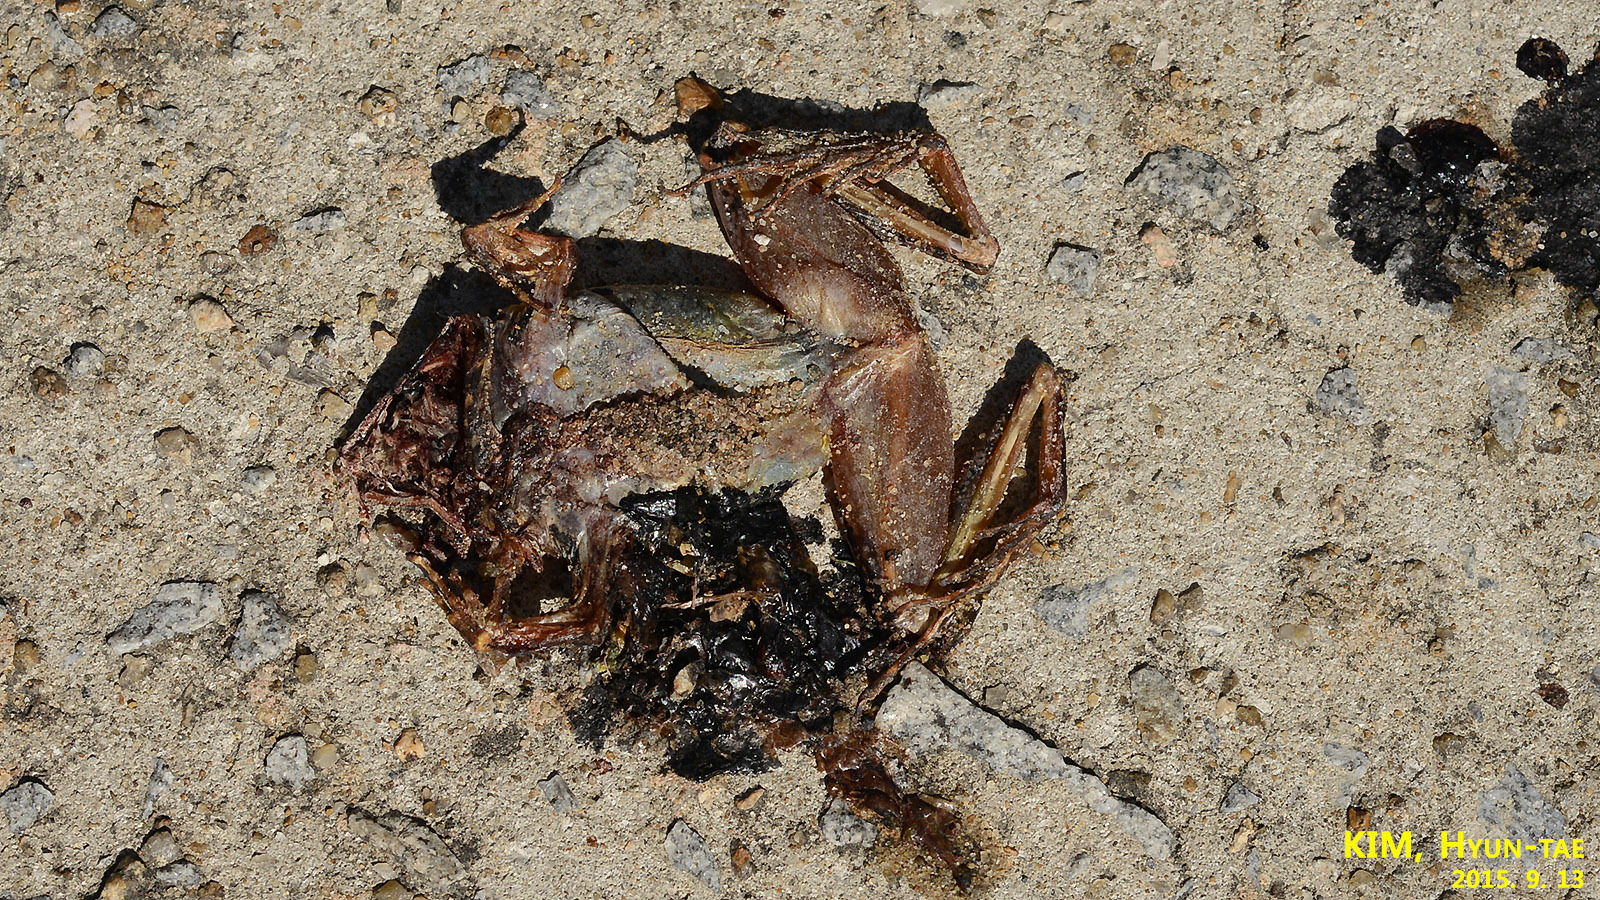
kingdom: Animalia
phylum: Chordata
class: Amphibia
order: Anura
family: Ranidae
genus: Rana
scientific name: Rana uenoi
